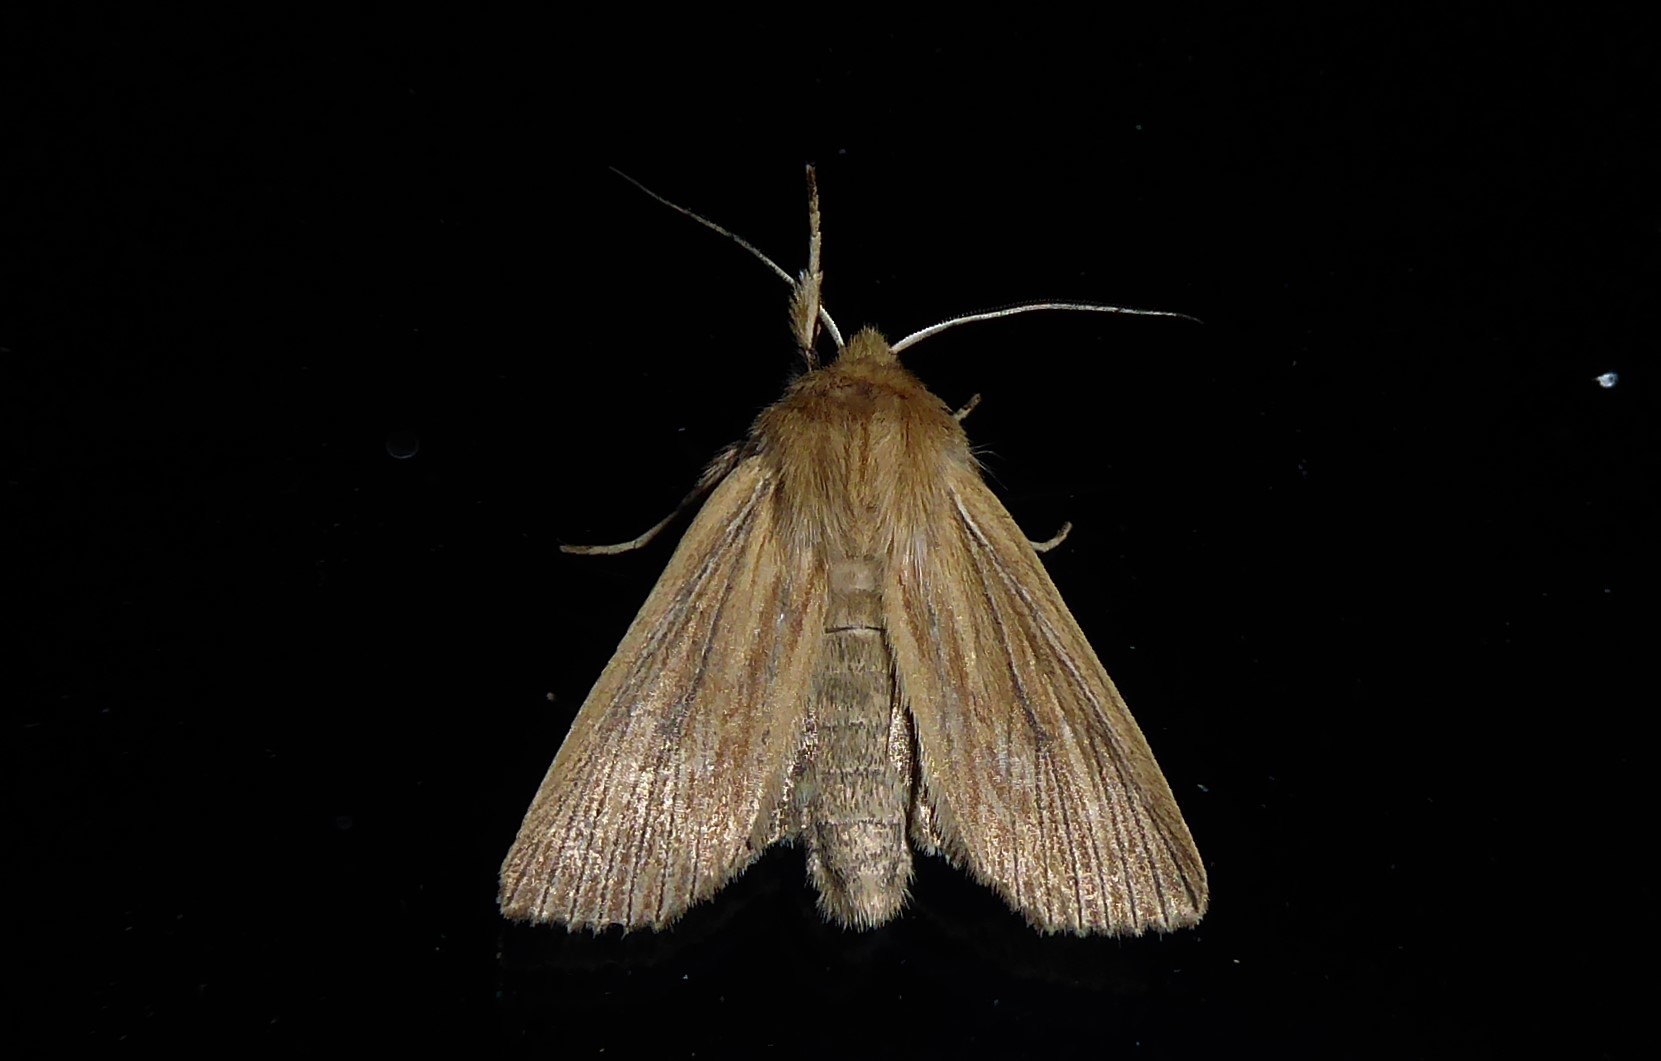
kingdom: Animalia
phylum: Arthropoda
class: Insecta
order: Lepidoptera
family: Noctuidae
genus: Ichneutica
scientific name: Ichneutica arotis
